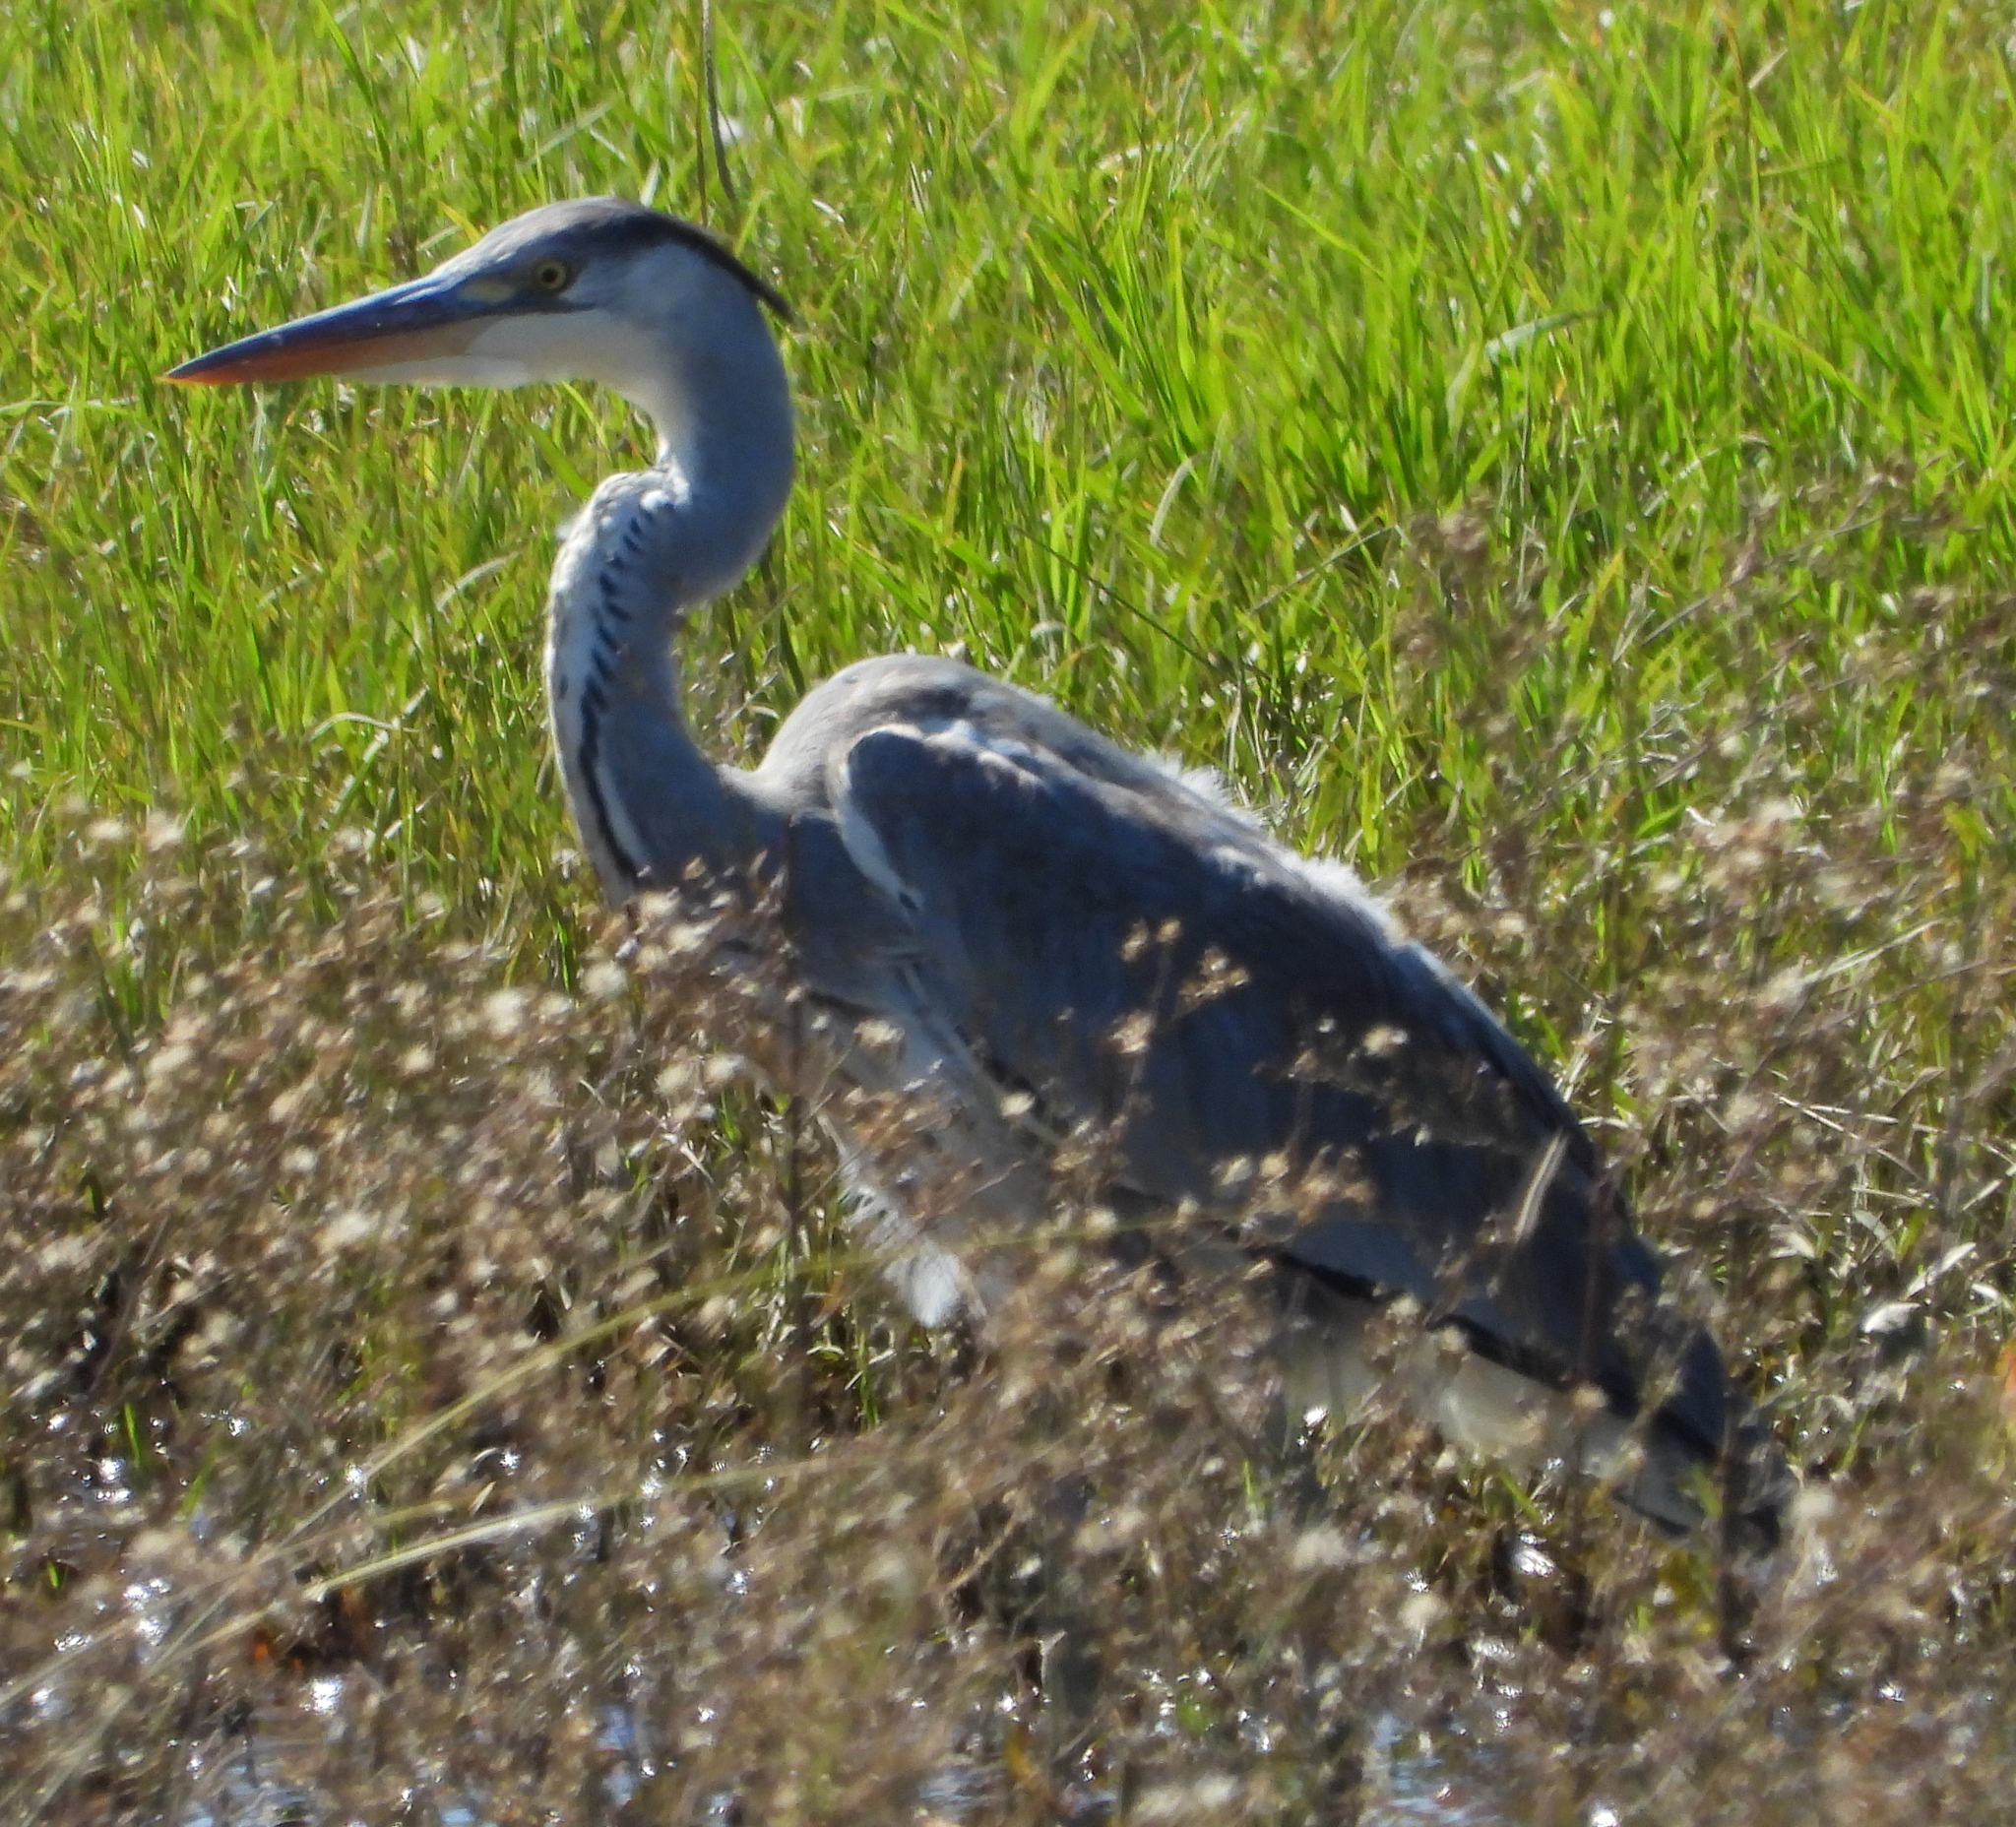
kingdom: Animalia
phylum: Chordata
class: Aves
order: Pelecaniformes
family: Ardeidae
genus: Ardea
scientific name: Ardea cinerea
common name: Grey heron
